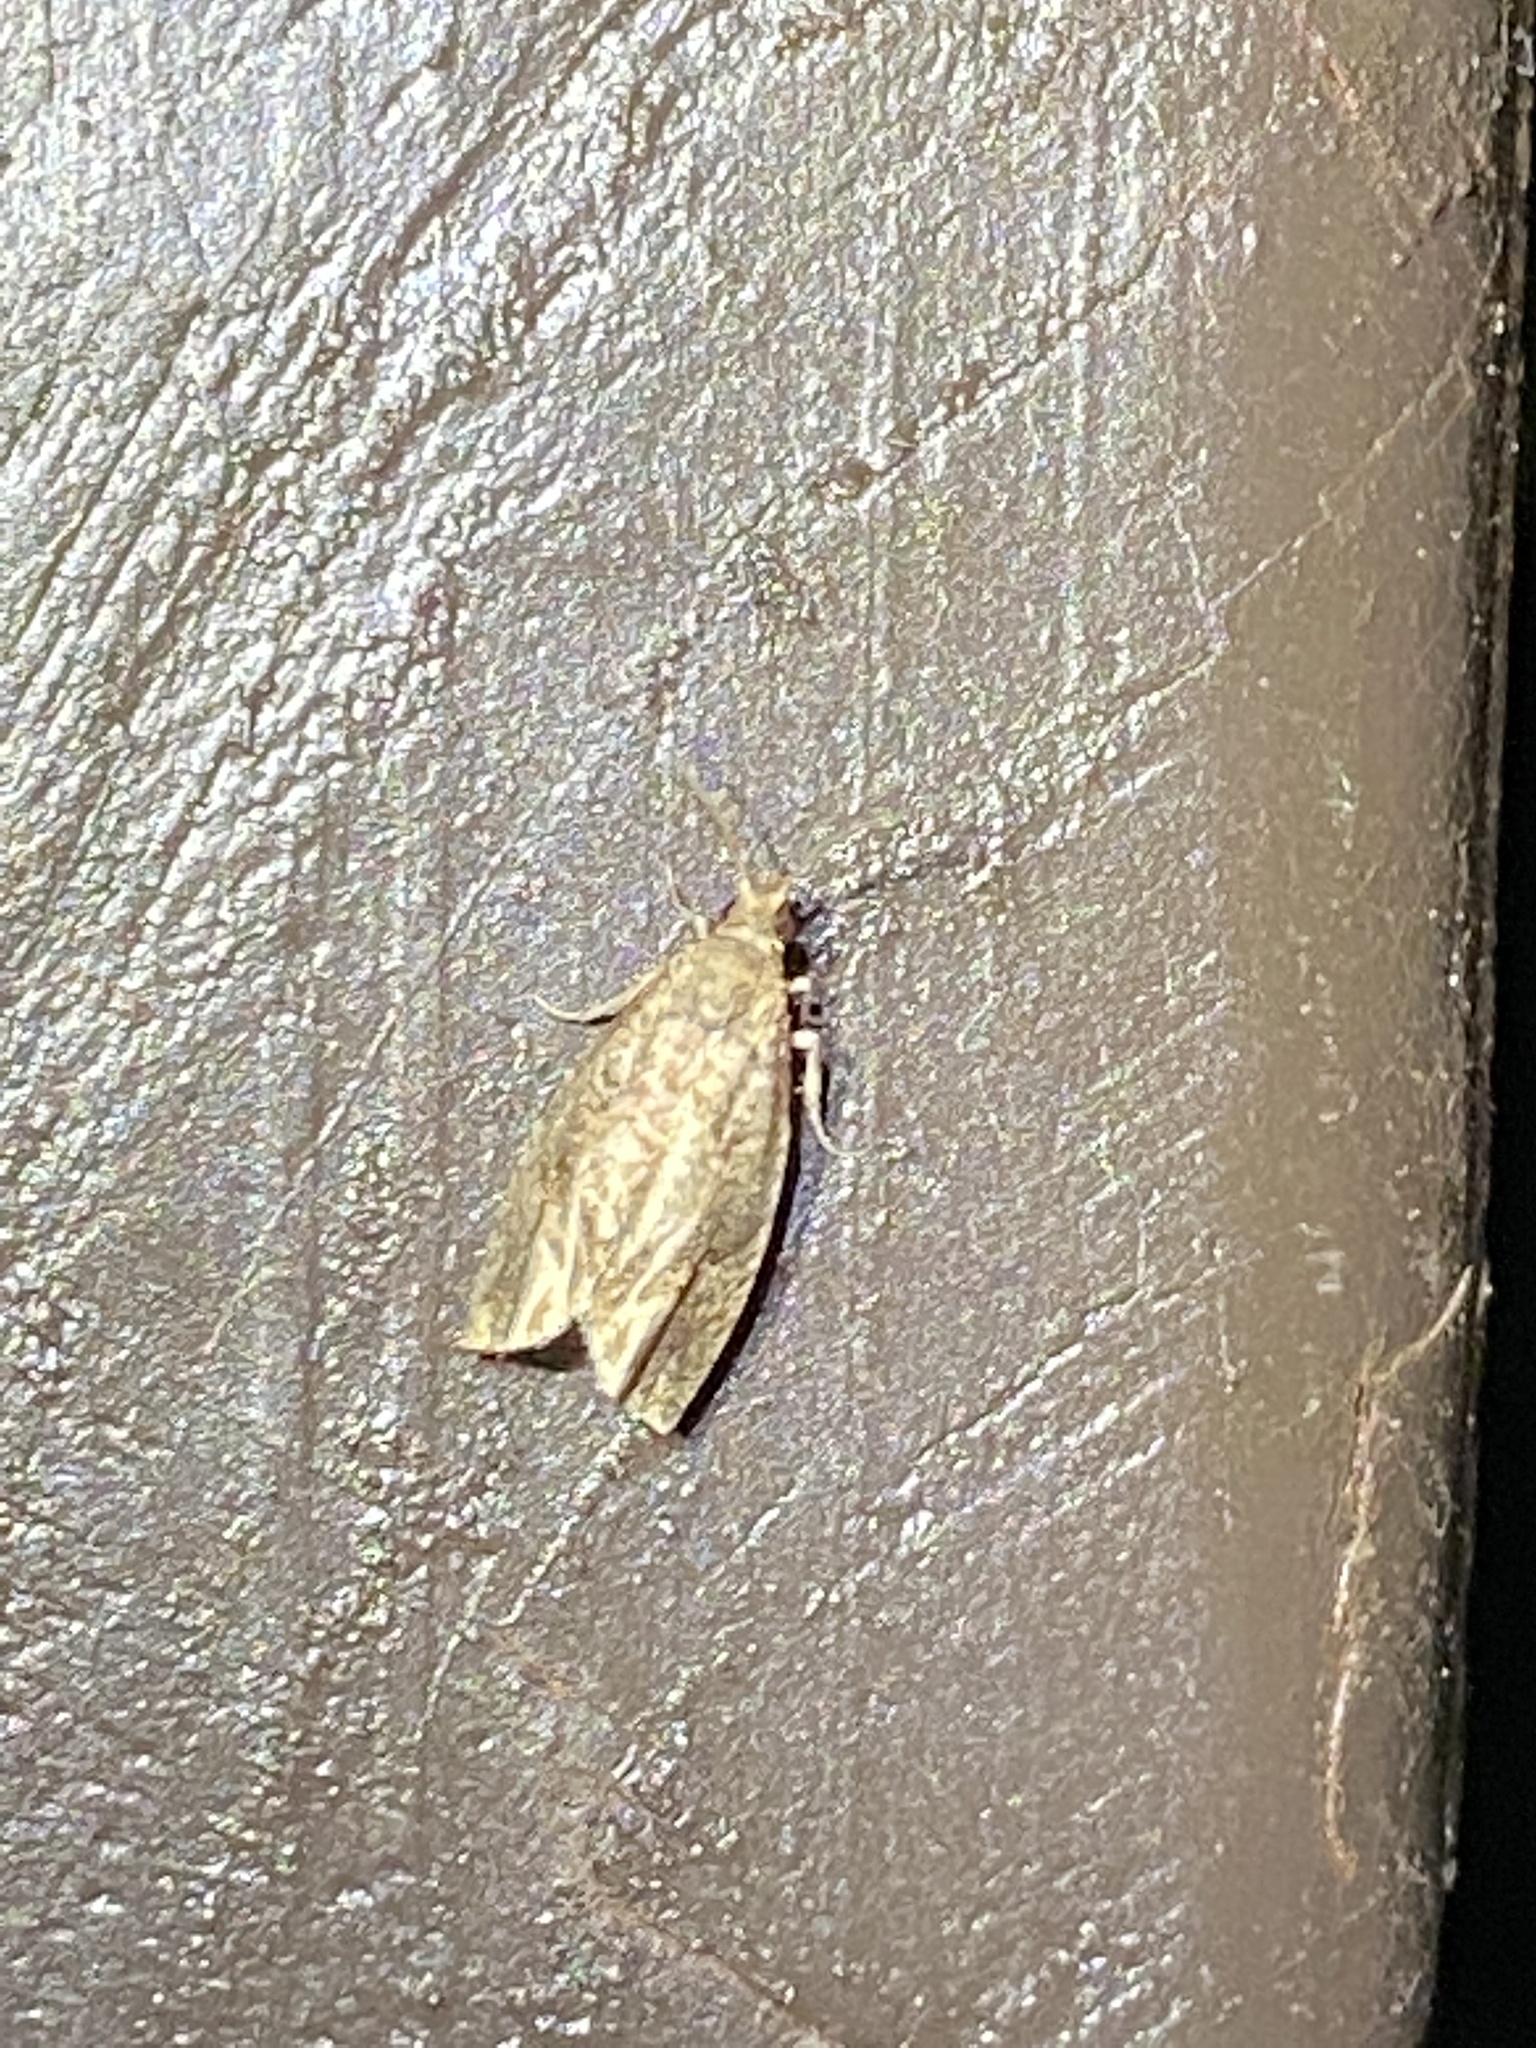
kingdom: Animalia
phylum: Arthropoda
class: Insecta
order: Lepidoptera
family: Tortricidae
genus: Pelochrista
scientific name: Pelochrista derelicta
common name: Derelict pelochrista moth
